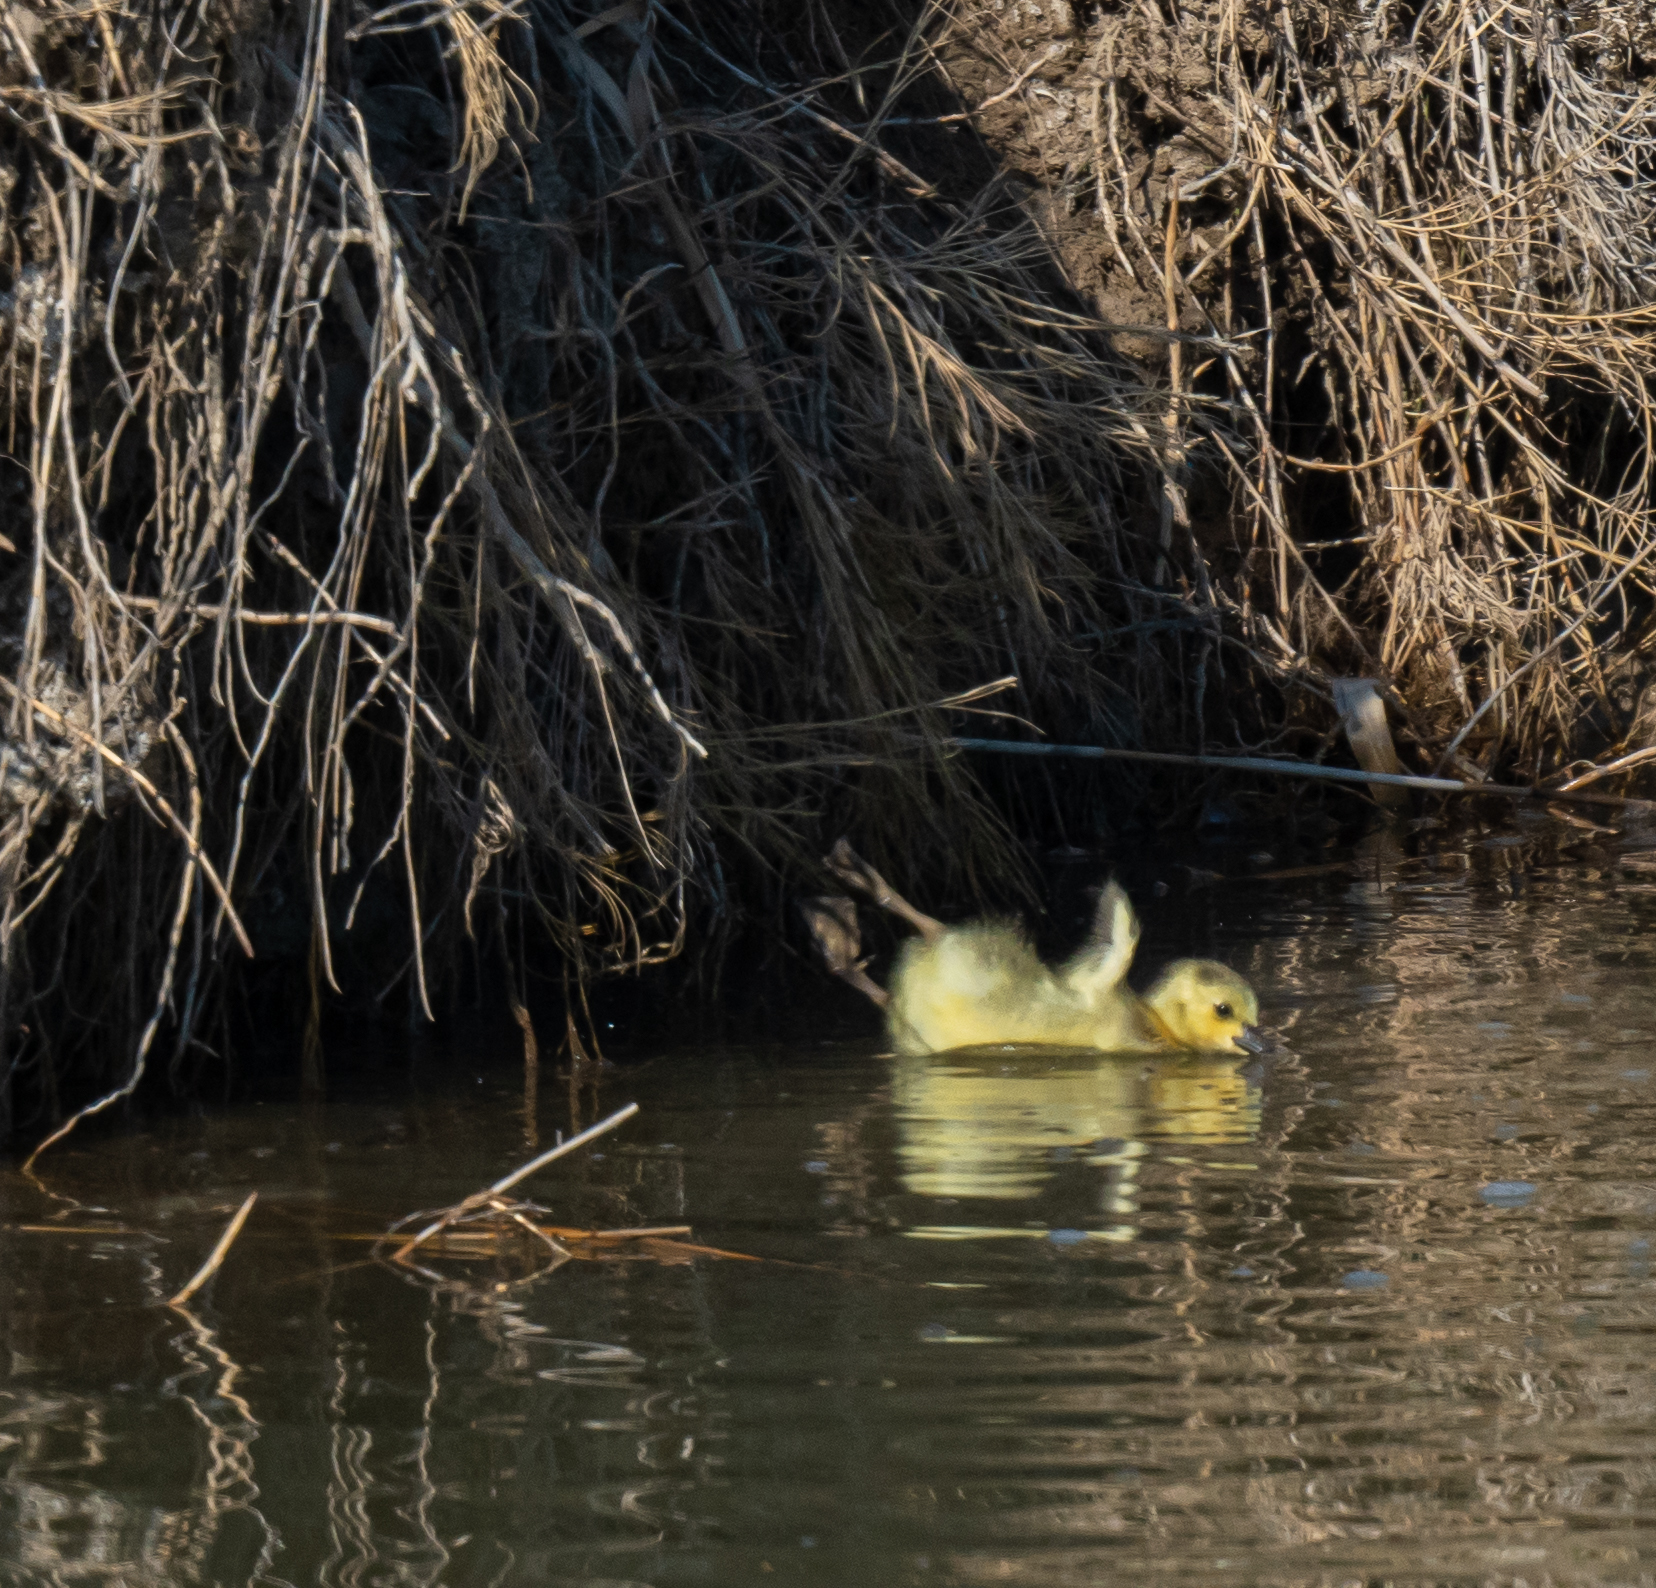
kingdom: Animalia
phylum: Chordata
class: Aves
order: Anseriformes
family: Anatidae
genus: Branta
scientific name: Branta canadensis
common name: Canada goose
